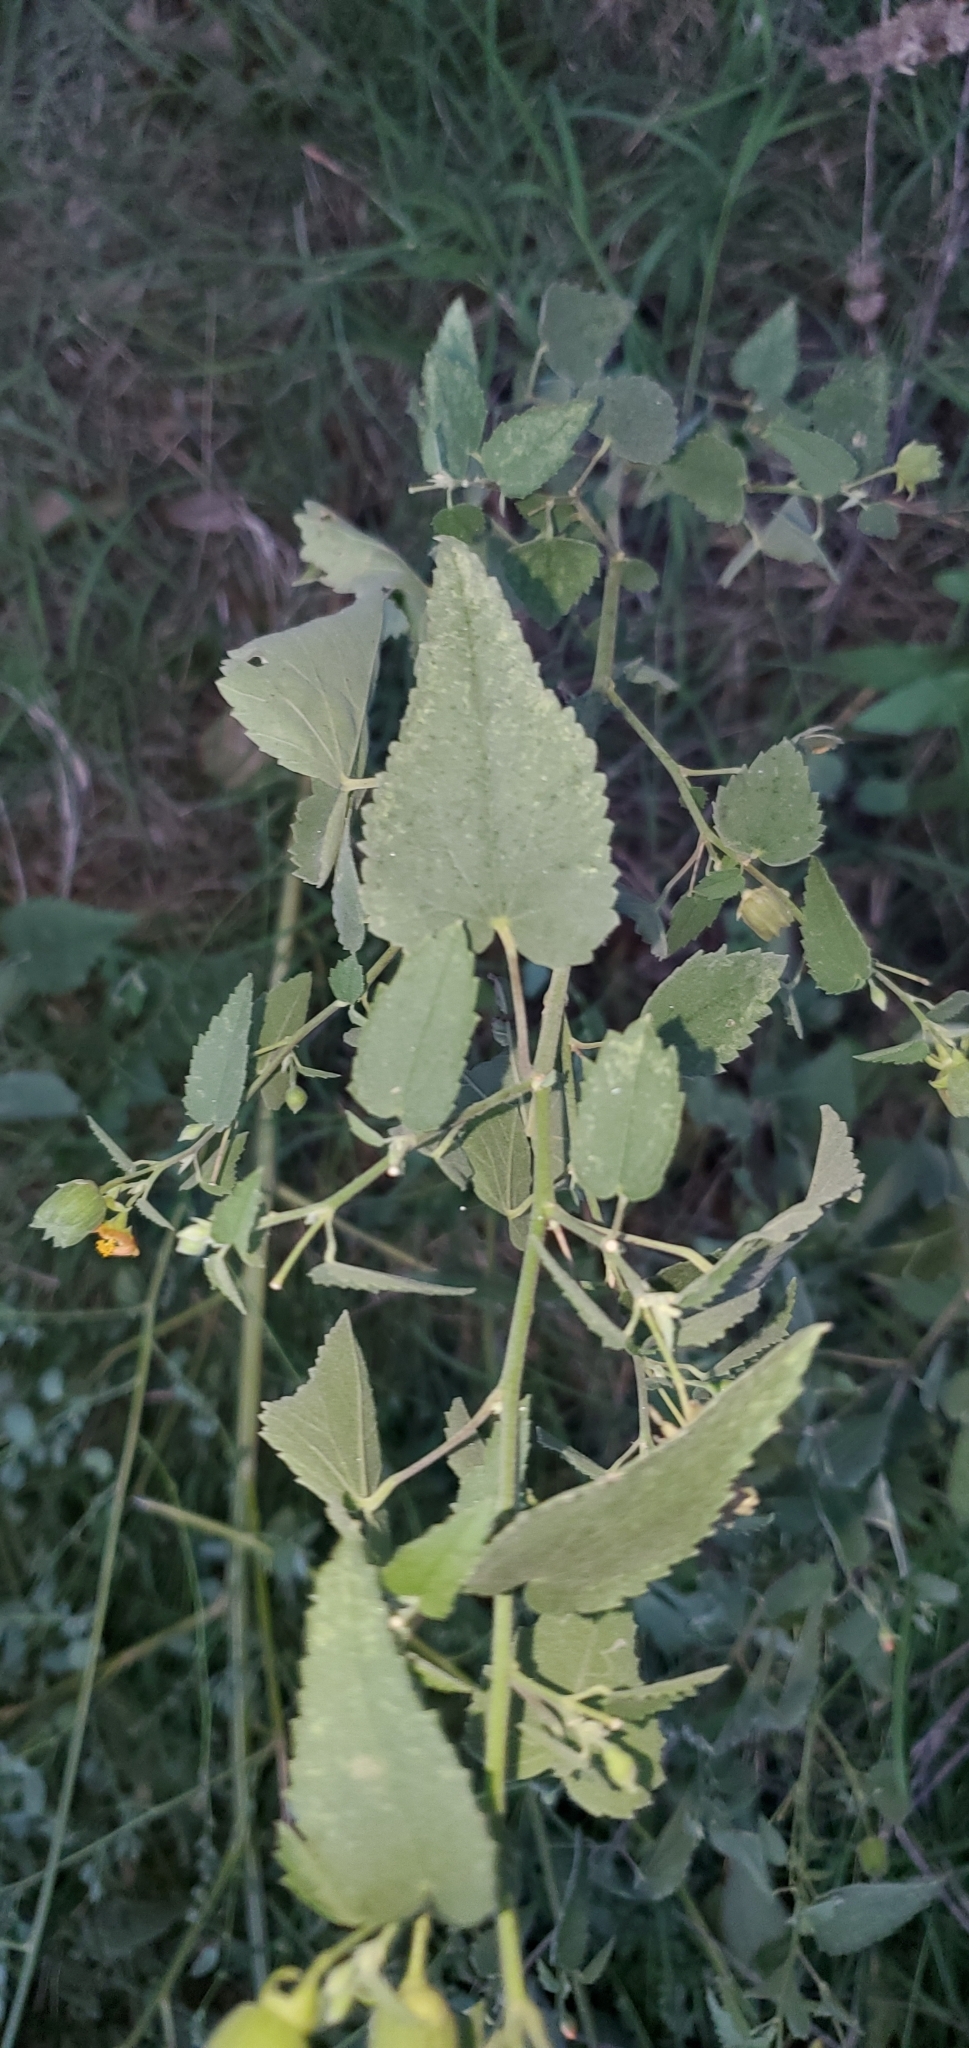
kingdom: Plantae
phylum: Tracheophyta
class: Magnoliopsida
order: Malvales
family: Malvaceae
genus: Abutilon
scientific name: Abutilon fruticosum
